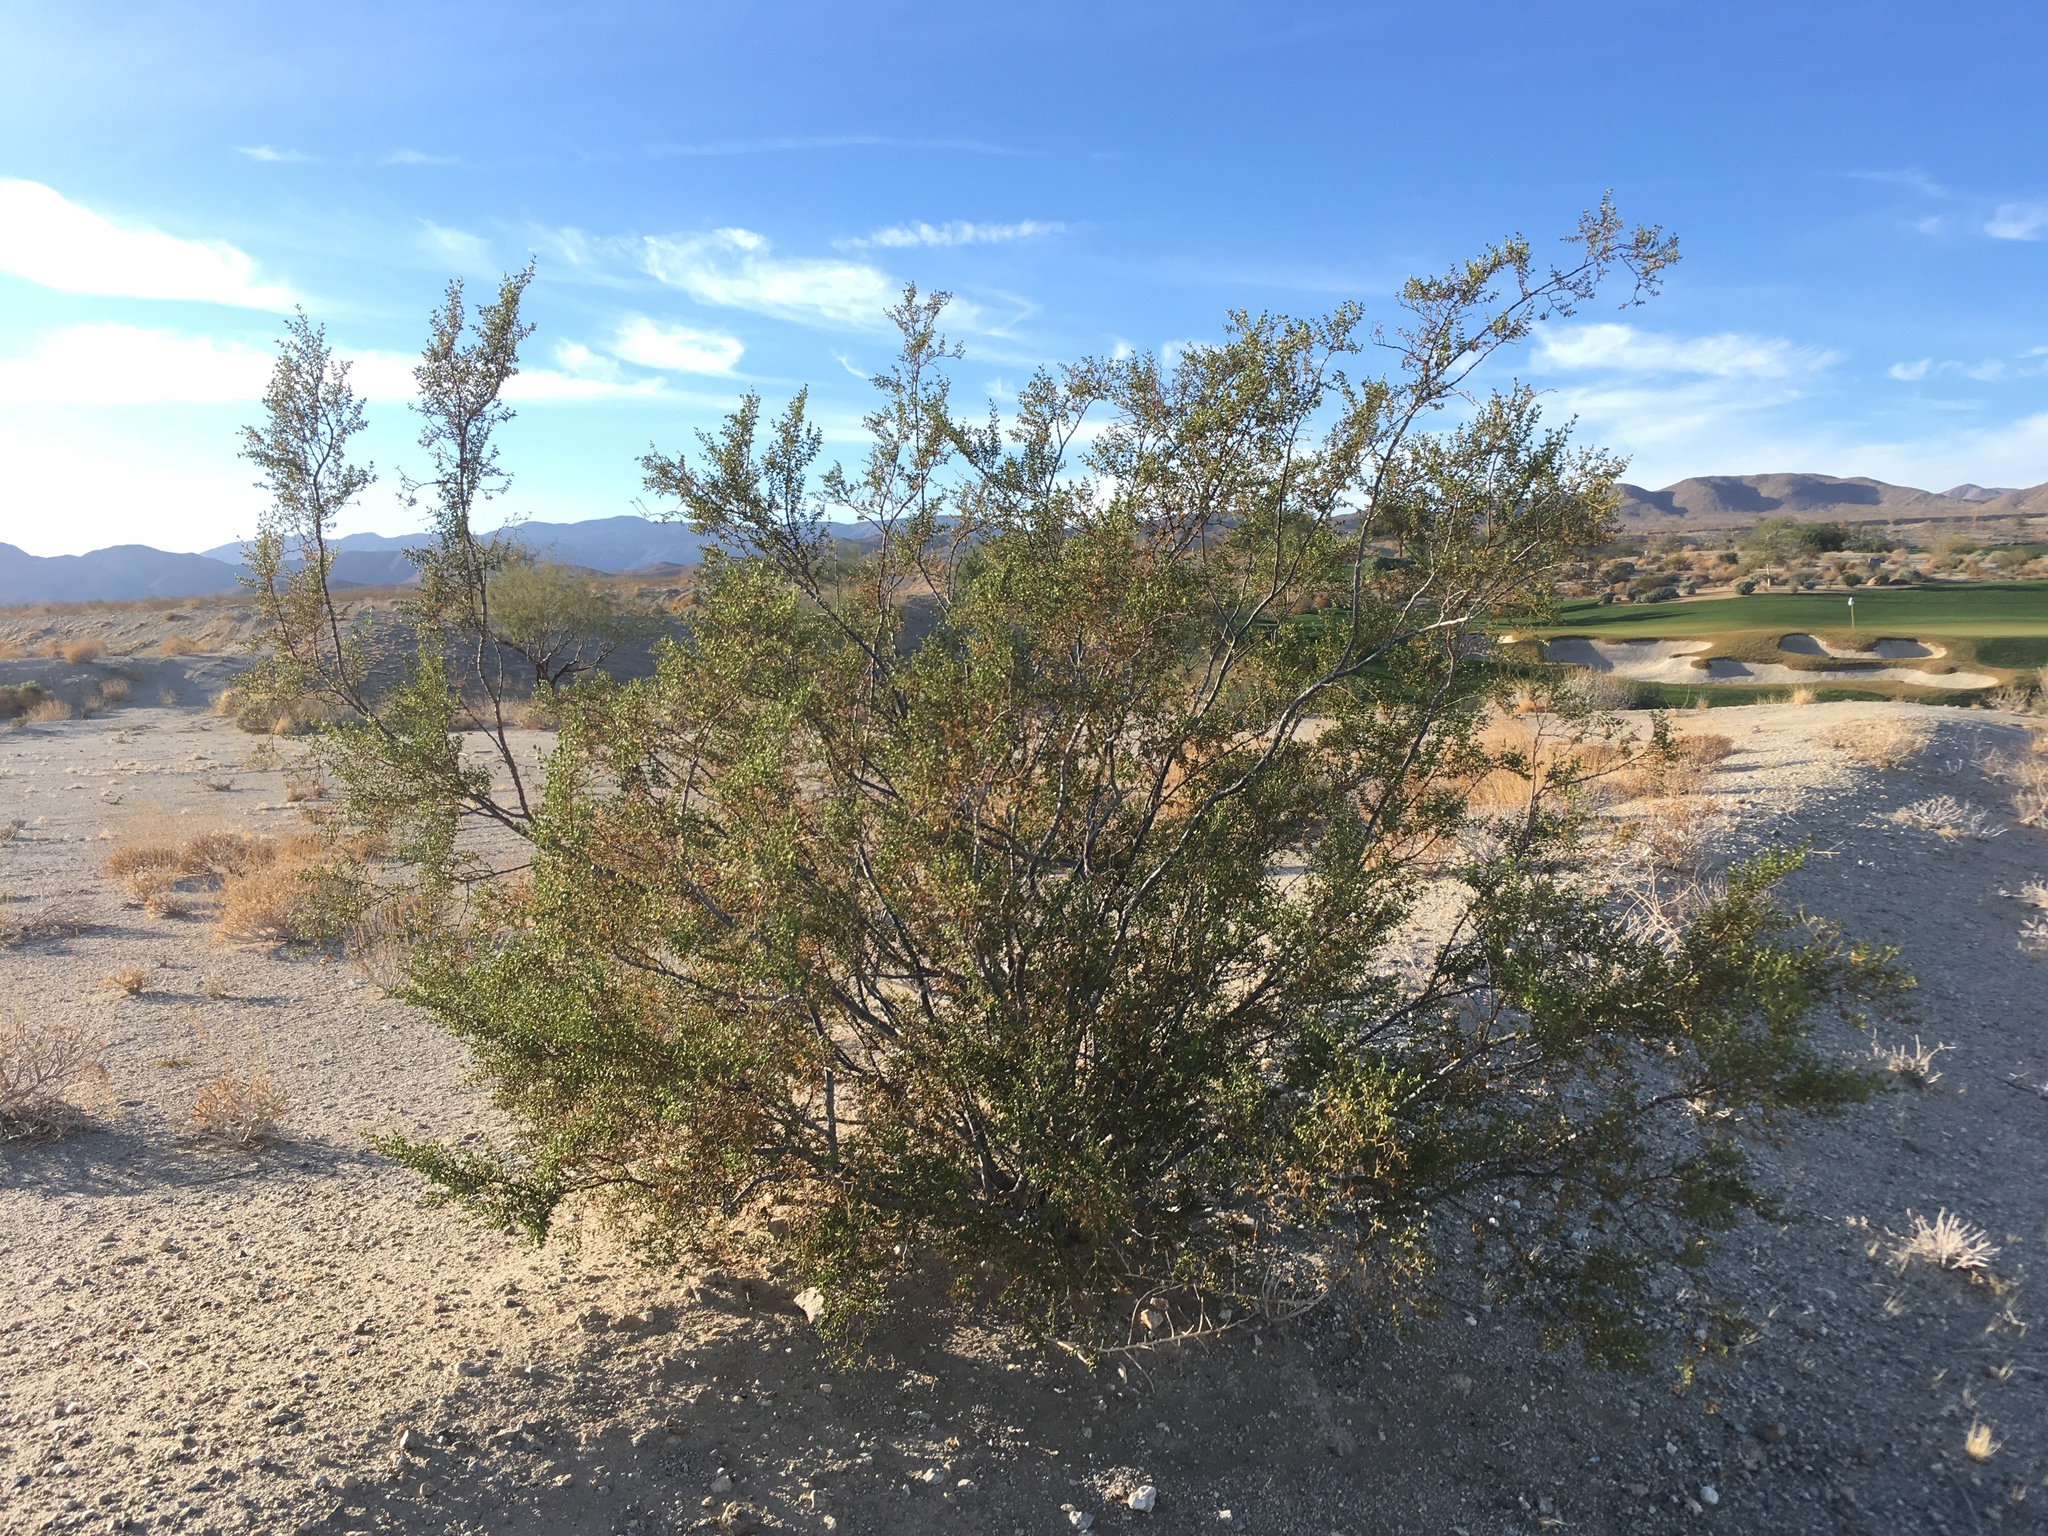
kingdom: Plantae
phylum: Tracheophyta
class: Magnoliopsida
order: Zygophyllales
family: Zygophyllaceae
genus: Larrea
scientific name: Larrea tridentata
